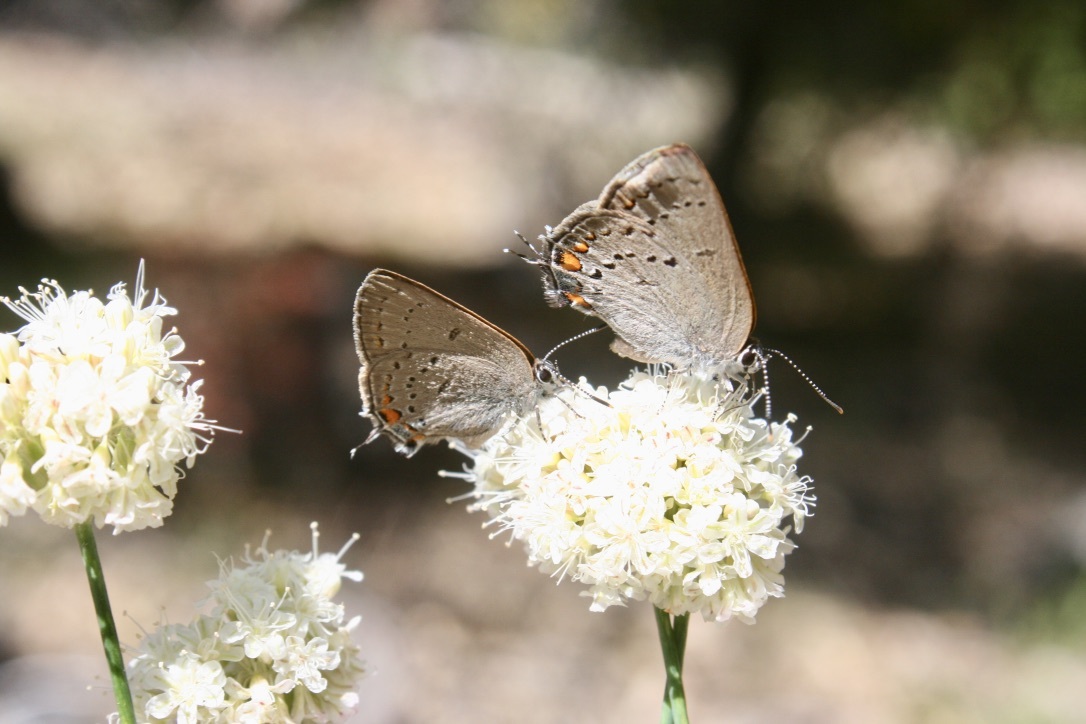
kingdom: Animalia
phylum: Arthropoda
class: Insecta
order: Lepidoptera
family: Lycaenidae
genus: Strymon
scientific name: Strymon acadica
